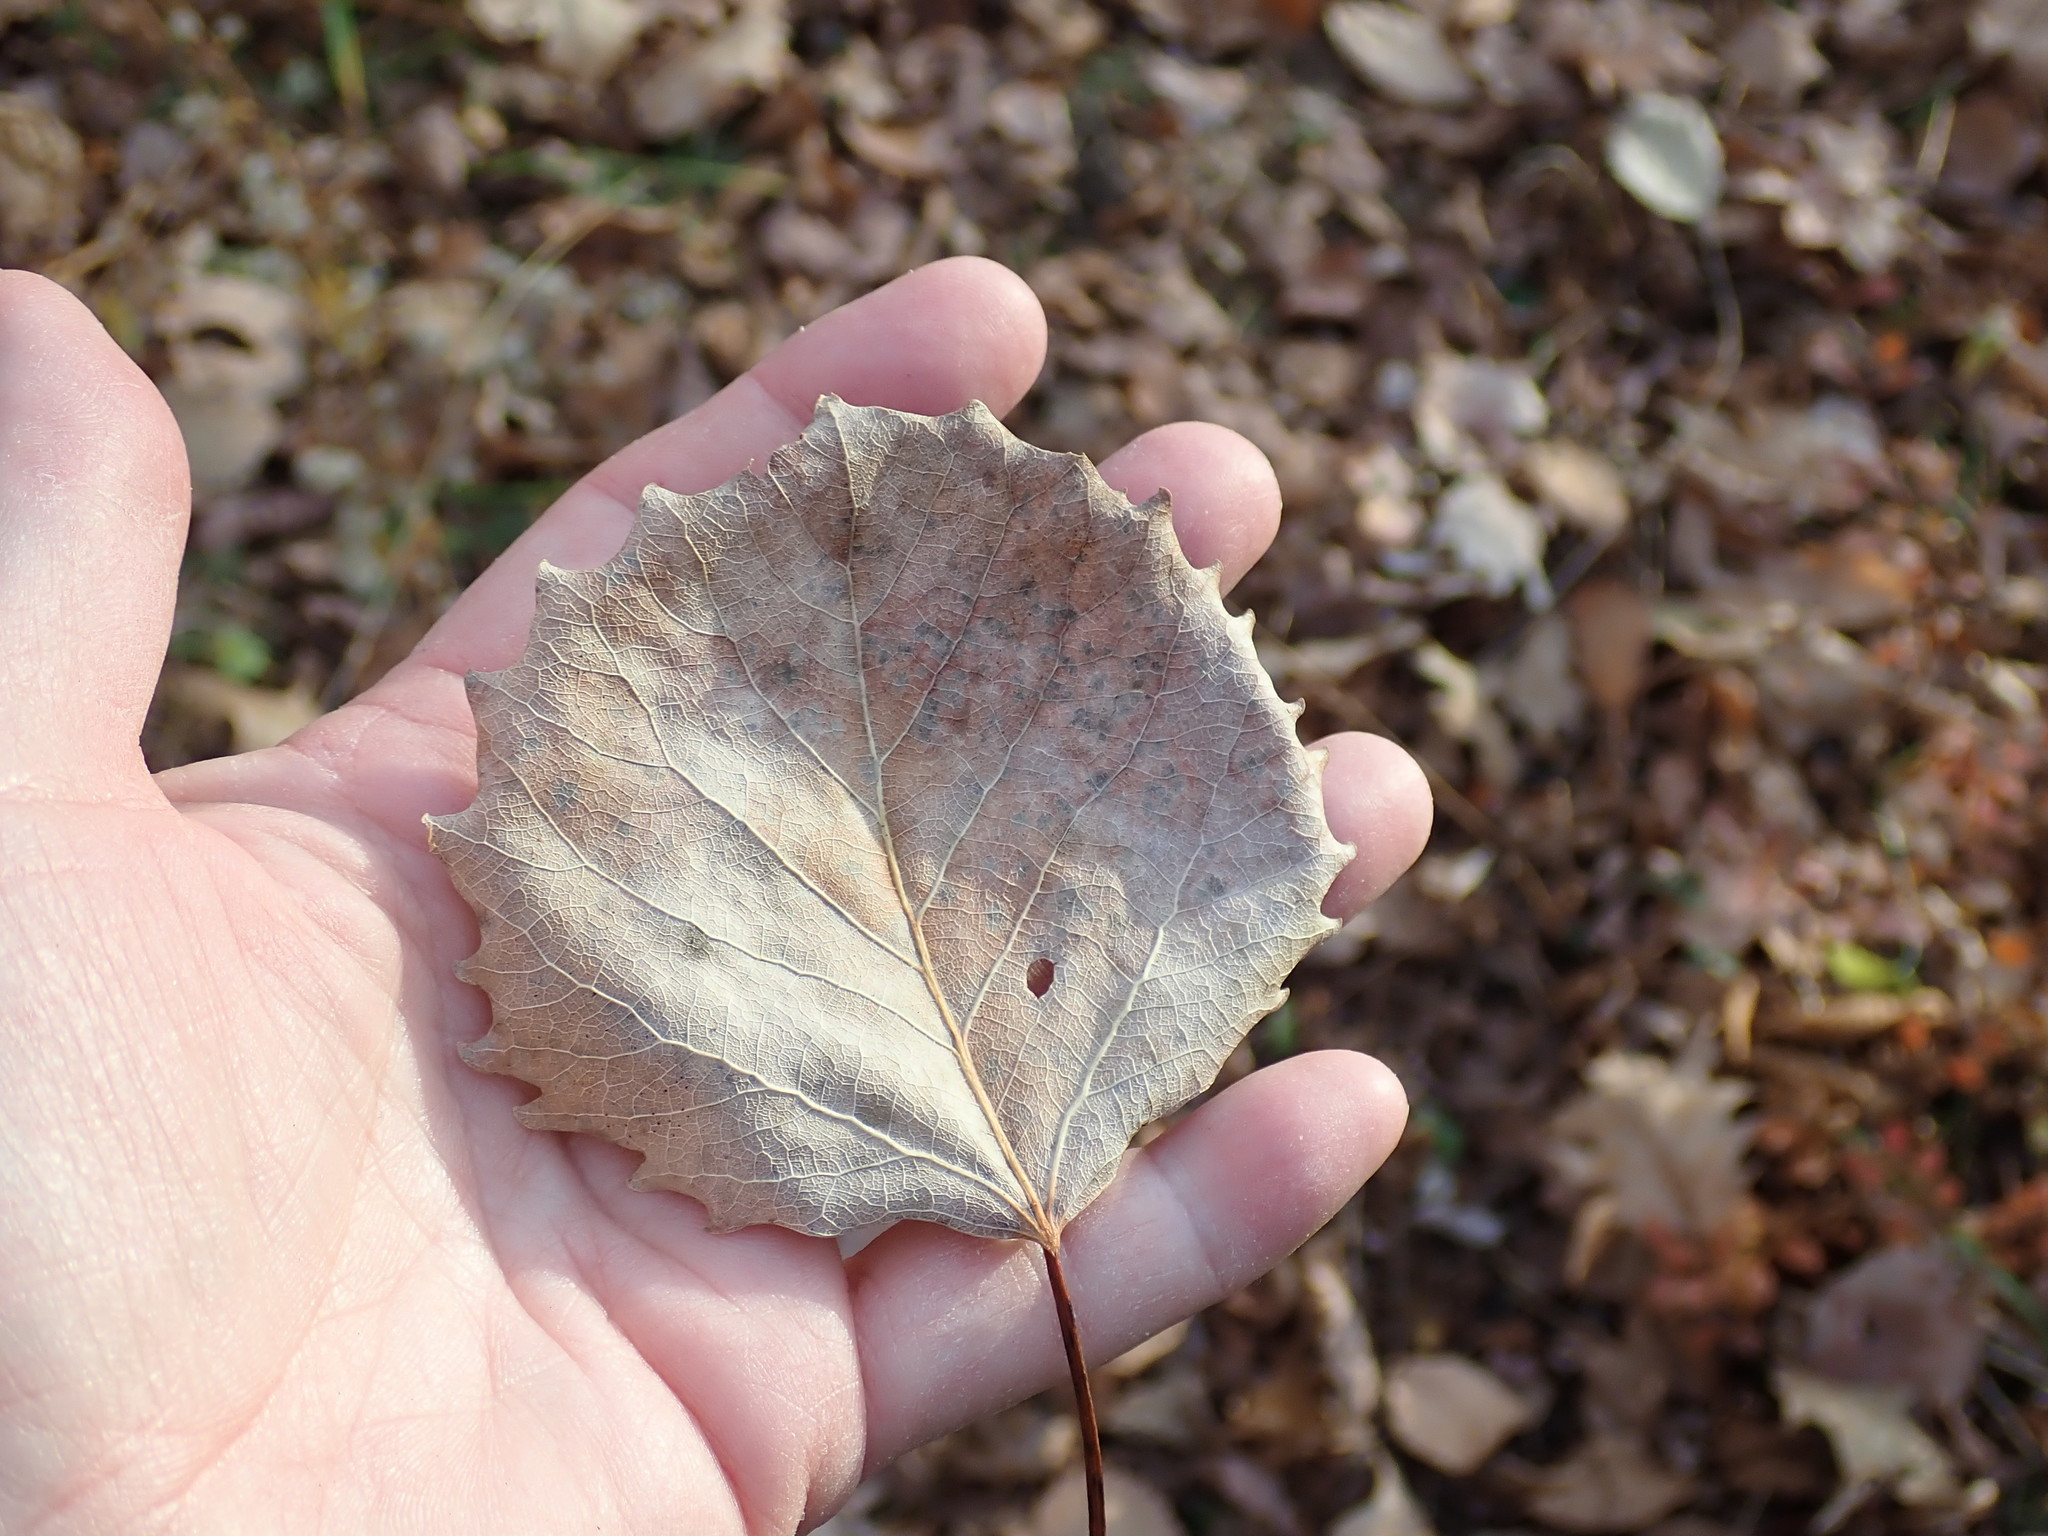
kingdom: Plantae
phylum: Tracheophyta
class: Magnoliopsida
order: Malpighiales
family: Salicaceae
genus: Populus
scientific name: Populus grandidentata
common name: Bigtooth aspen
